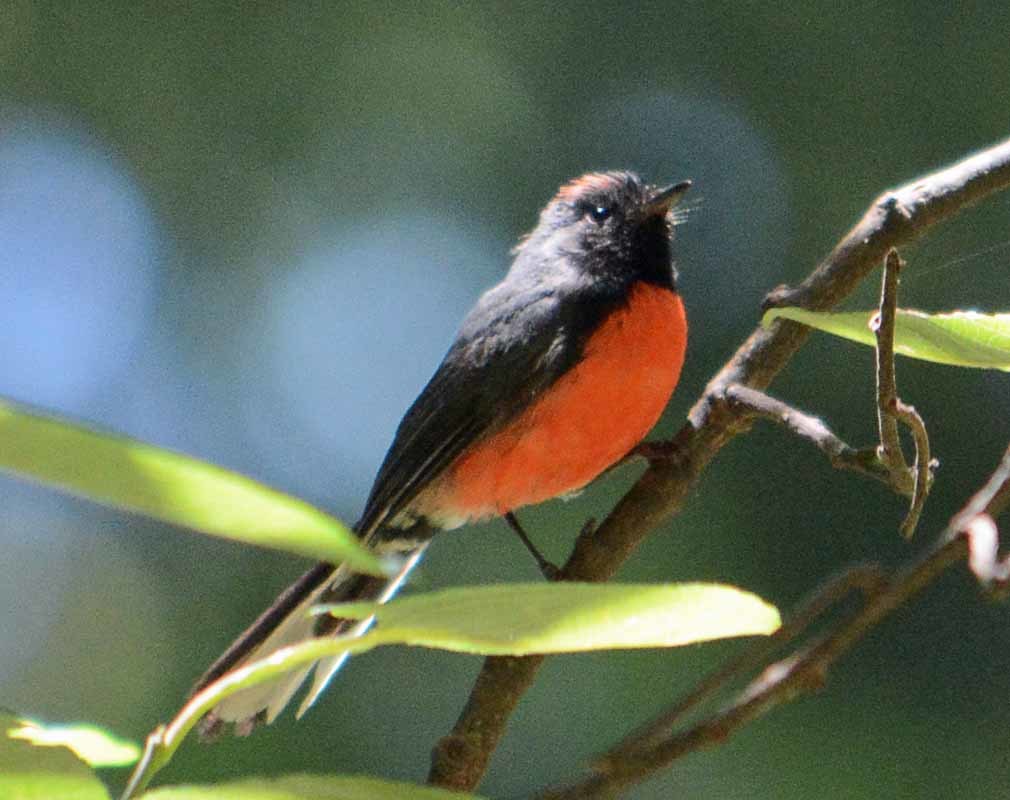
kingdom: Animalia
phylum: Chordata
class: Aves
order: Passeriformes
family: Parulidae
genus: Myioborus
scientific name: Myioborus miniatus
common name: Slate-throated redstart
